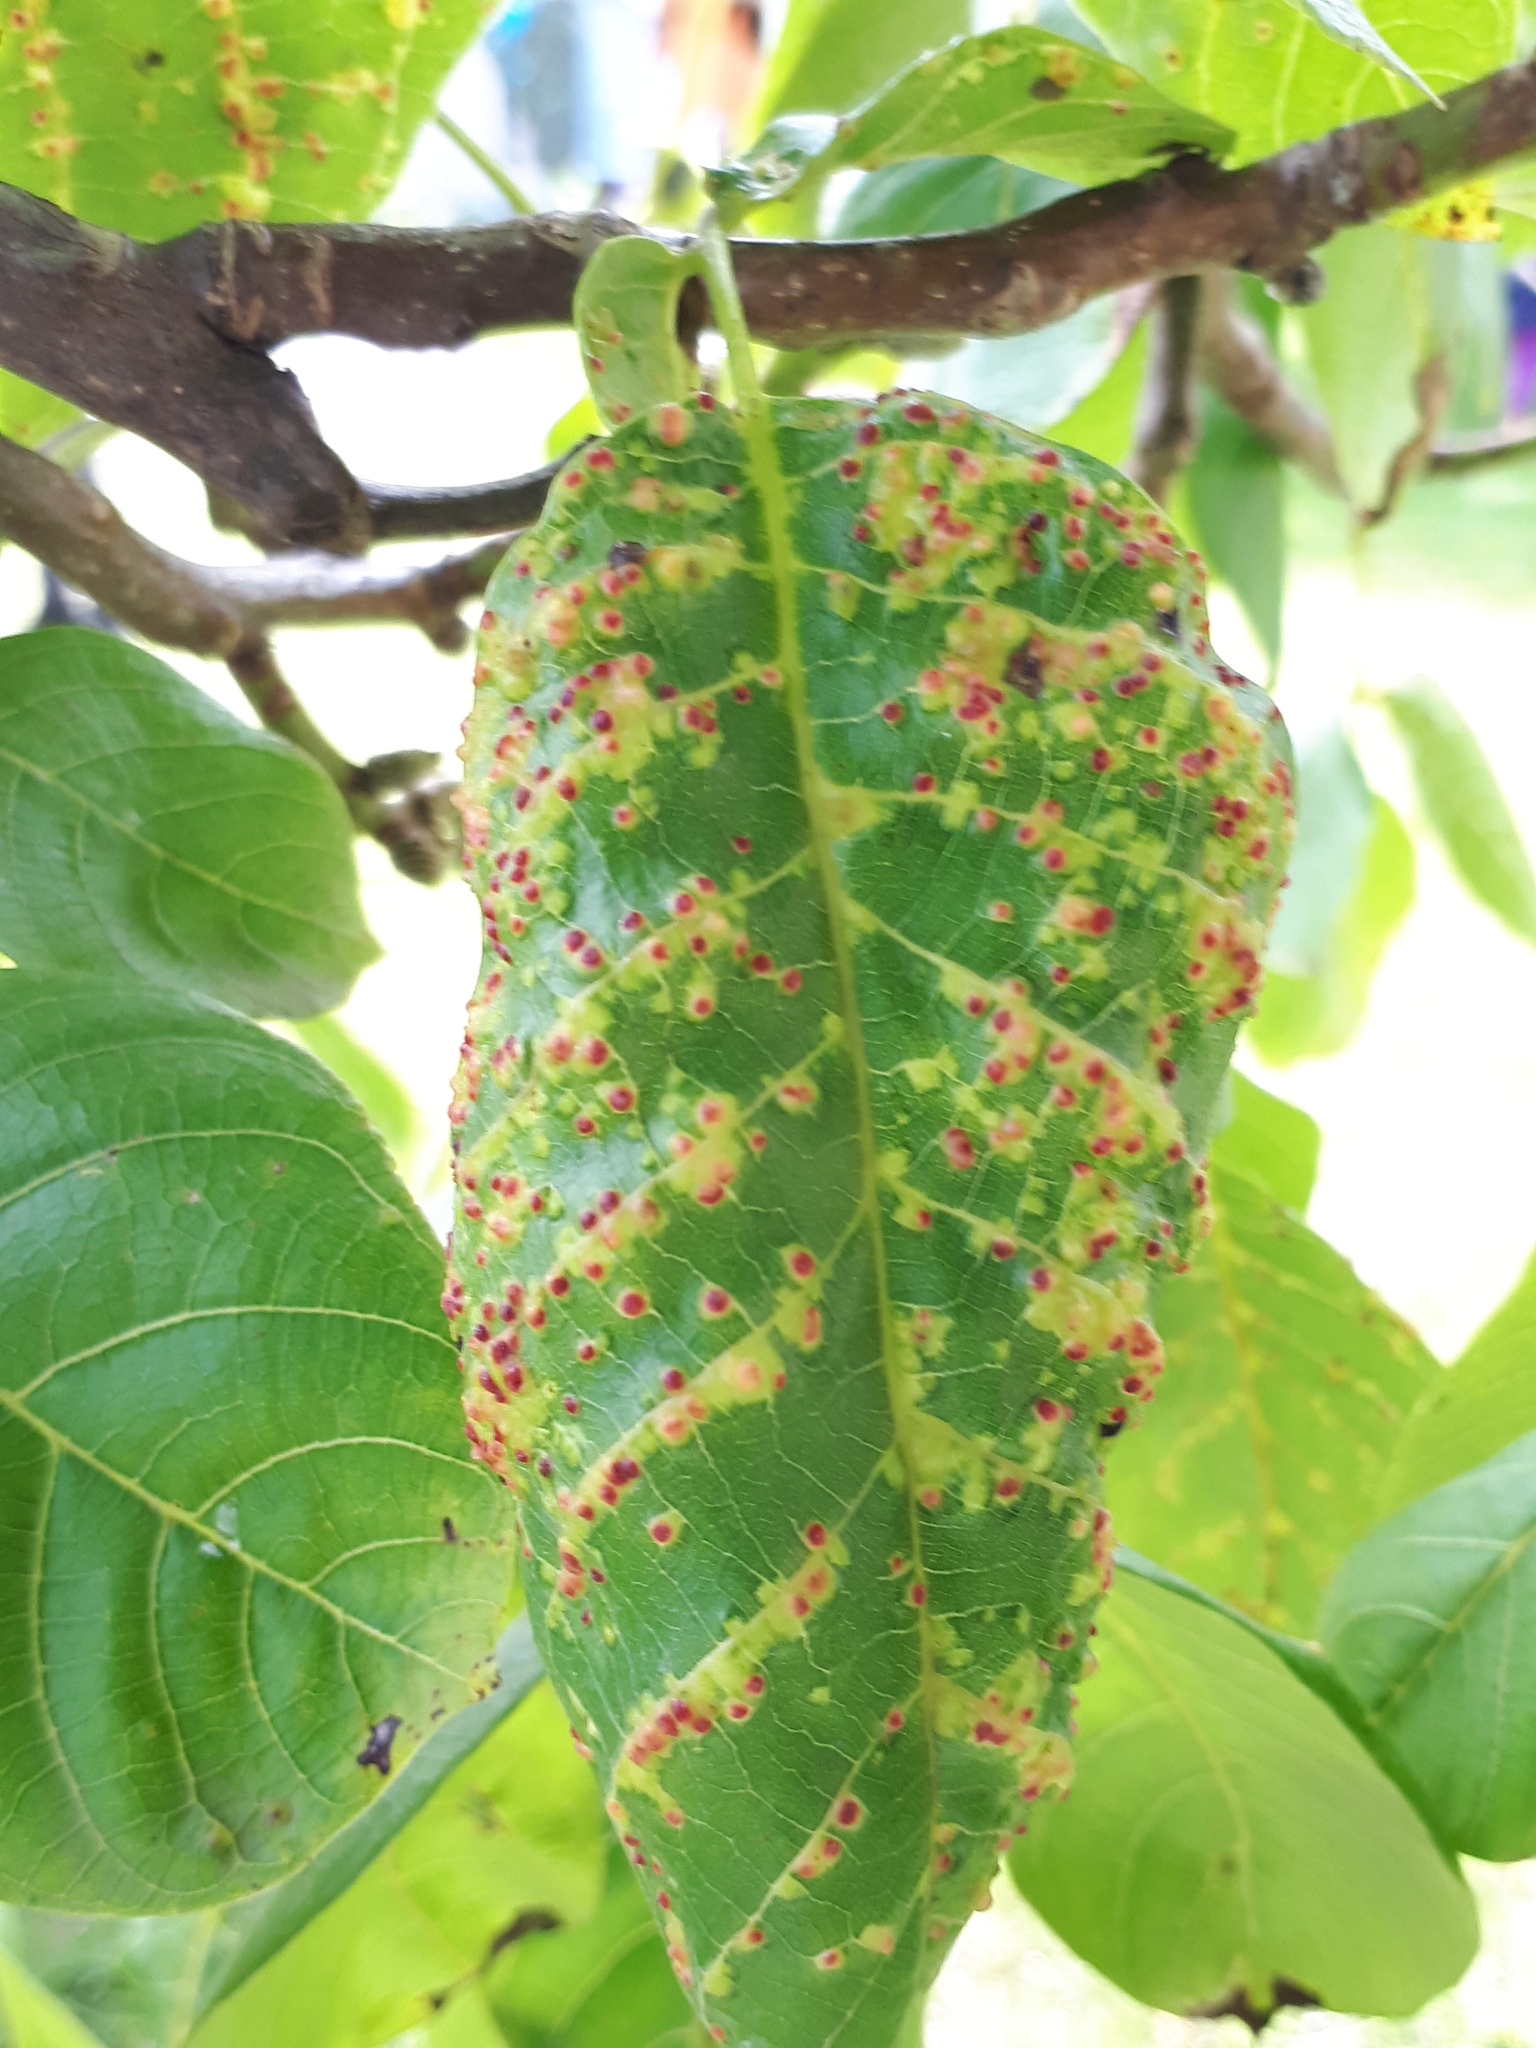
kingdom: Animalia
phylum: Arthropoda
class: Arachnida
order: Trombidiformes
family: Eriophyidae
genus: Aceria
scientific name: Aceria tristriata
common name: Persian walnut leaf blister mite
